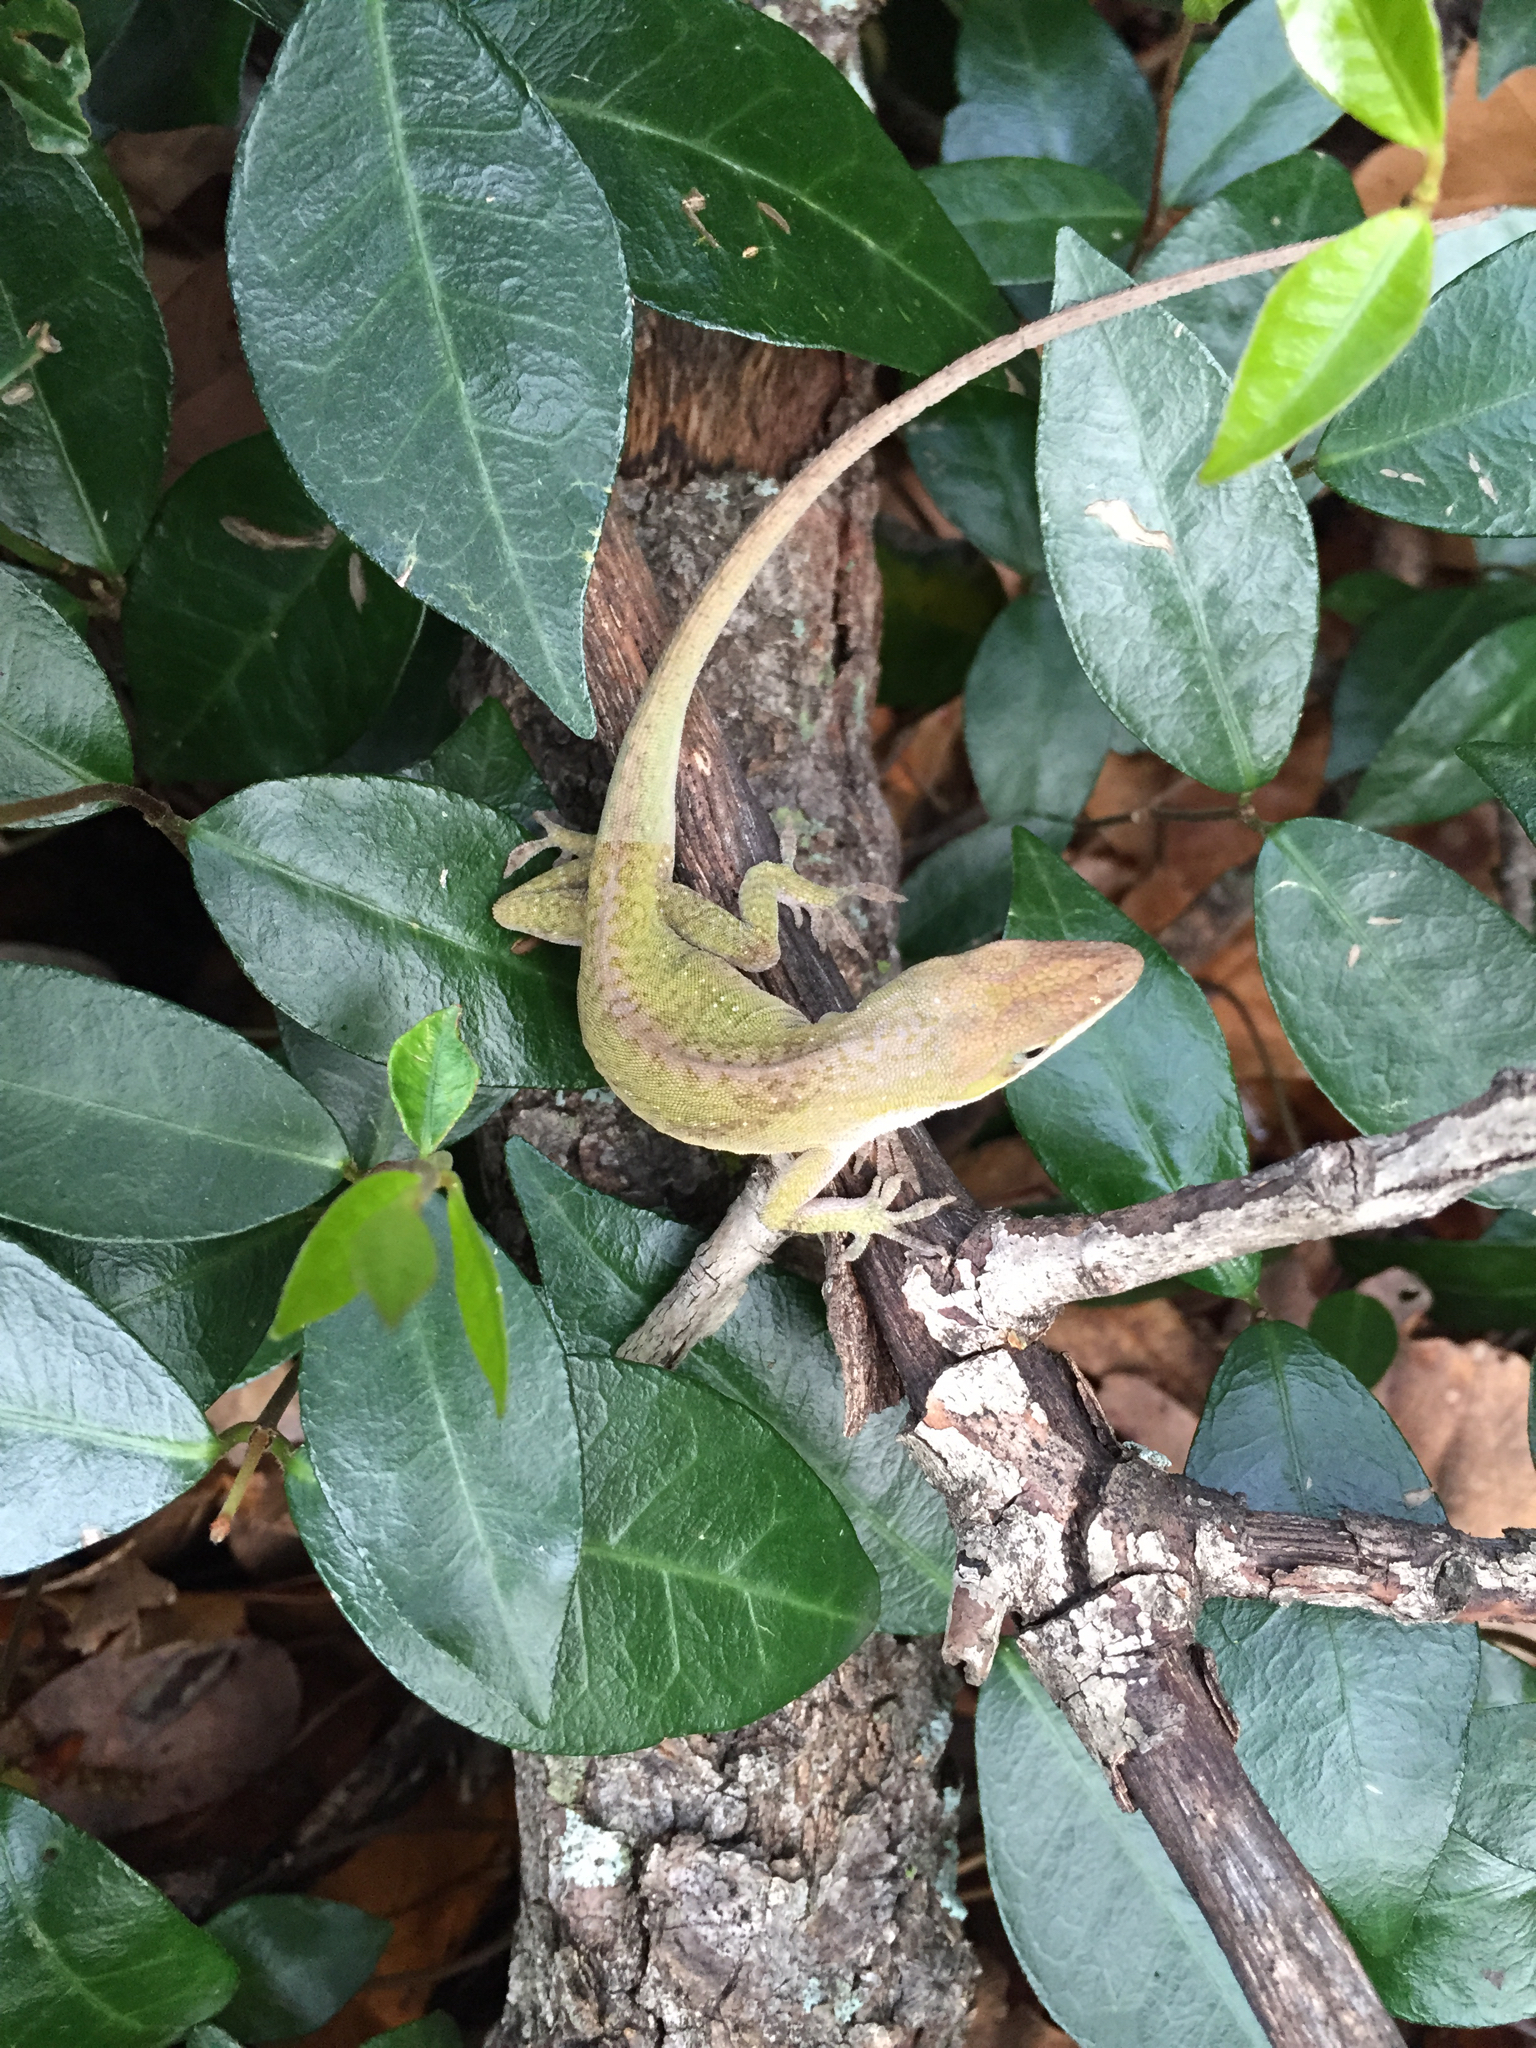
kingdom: Animalia
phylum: Chordata
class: Squamata
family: Dactyloidae
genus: Anolis
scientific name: Anolis carolinensis
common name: Green anole
